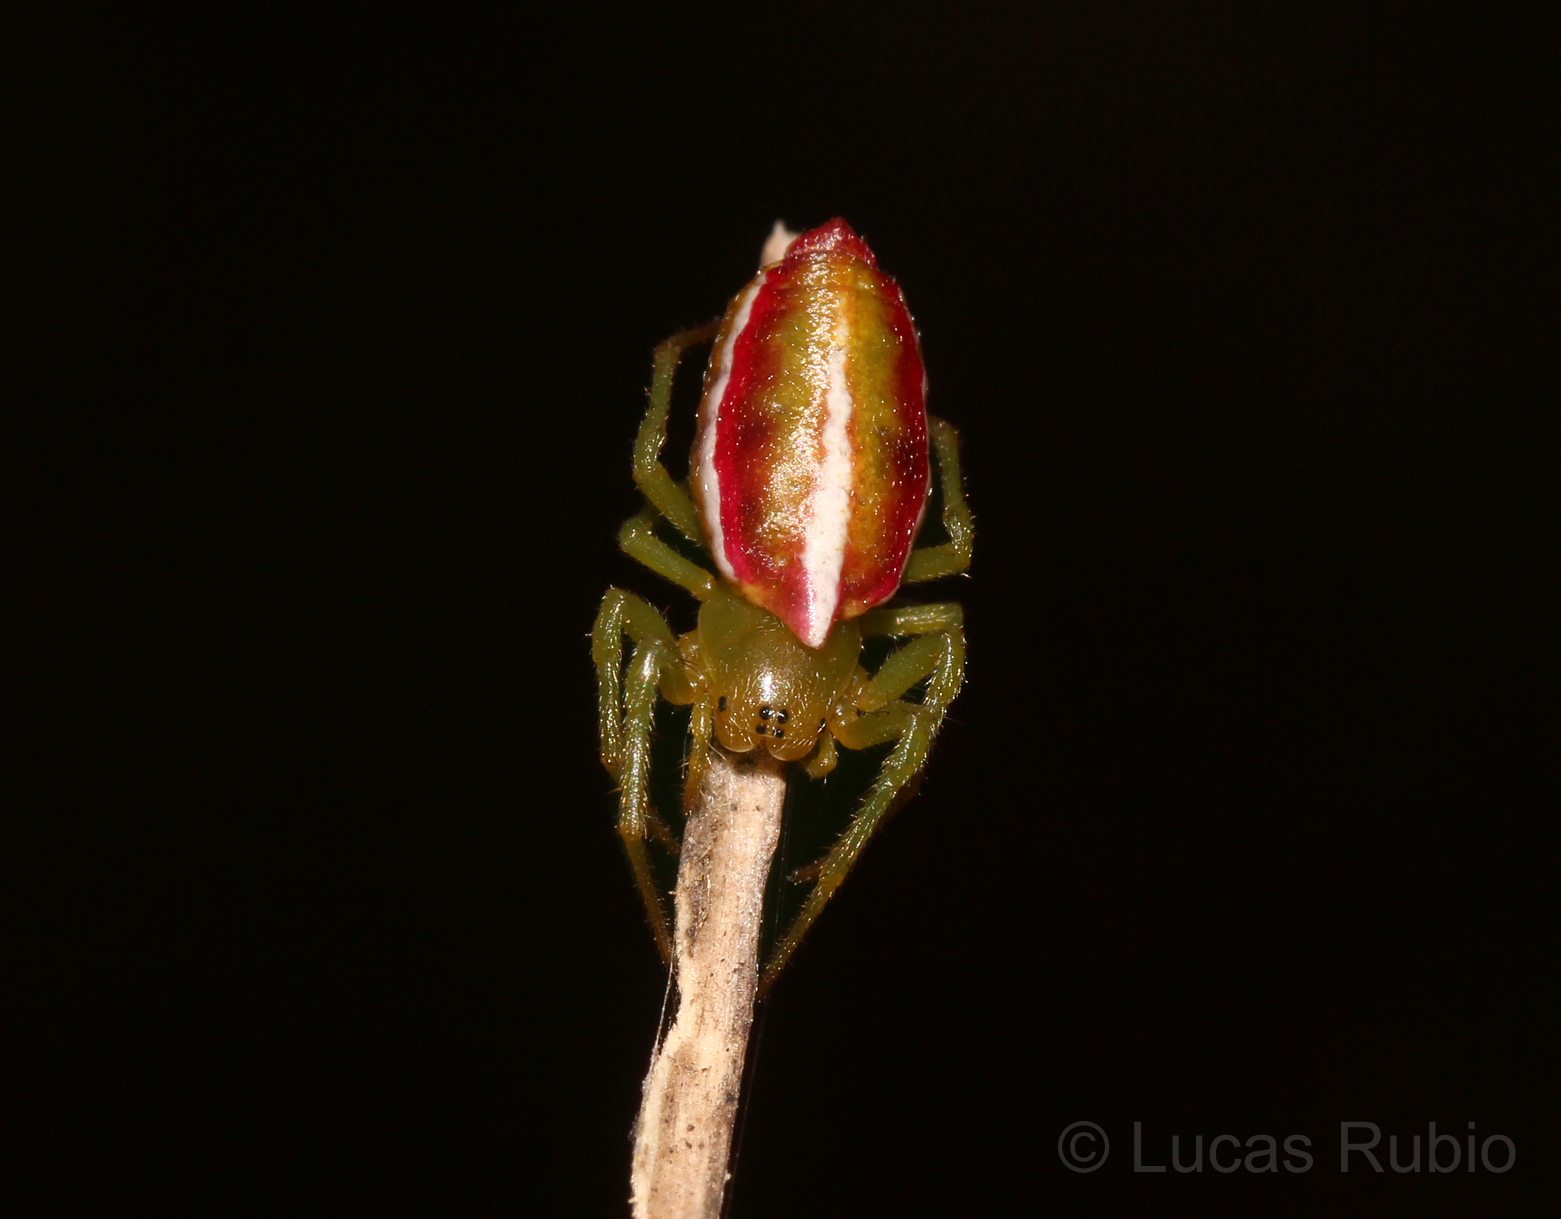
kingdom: Animalia
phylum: Arthropoda
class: Arachnida
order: Araneae
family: Araneidae
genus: Alpaida
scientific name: Alpaida rostratula
